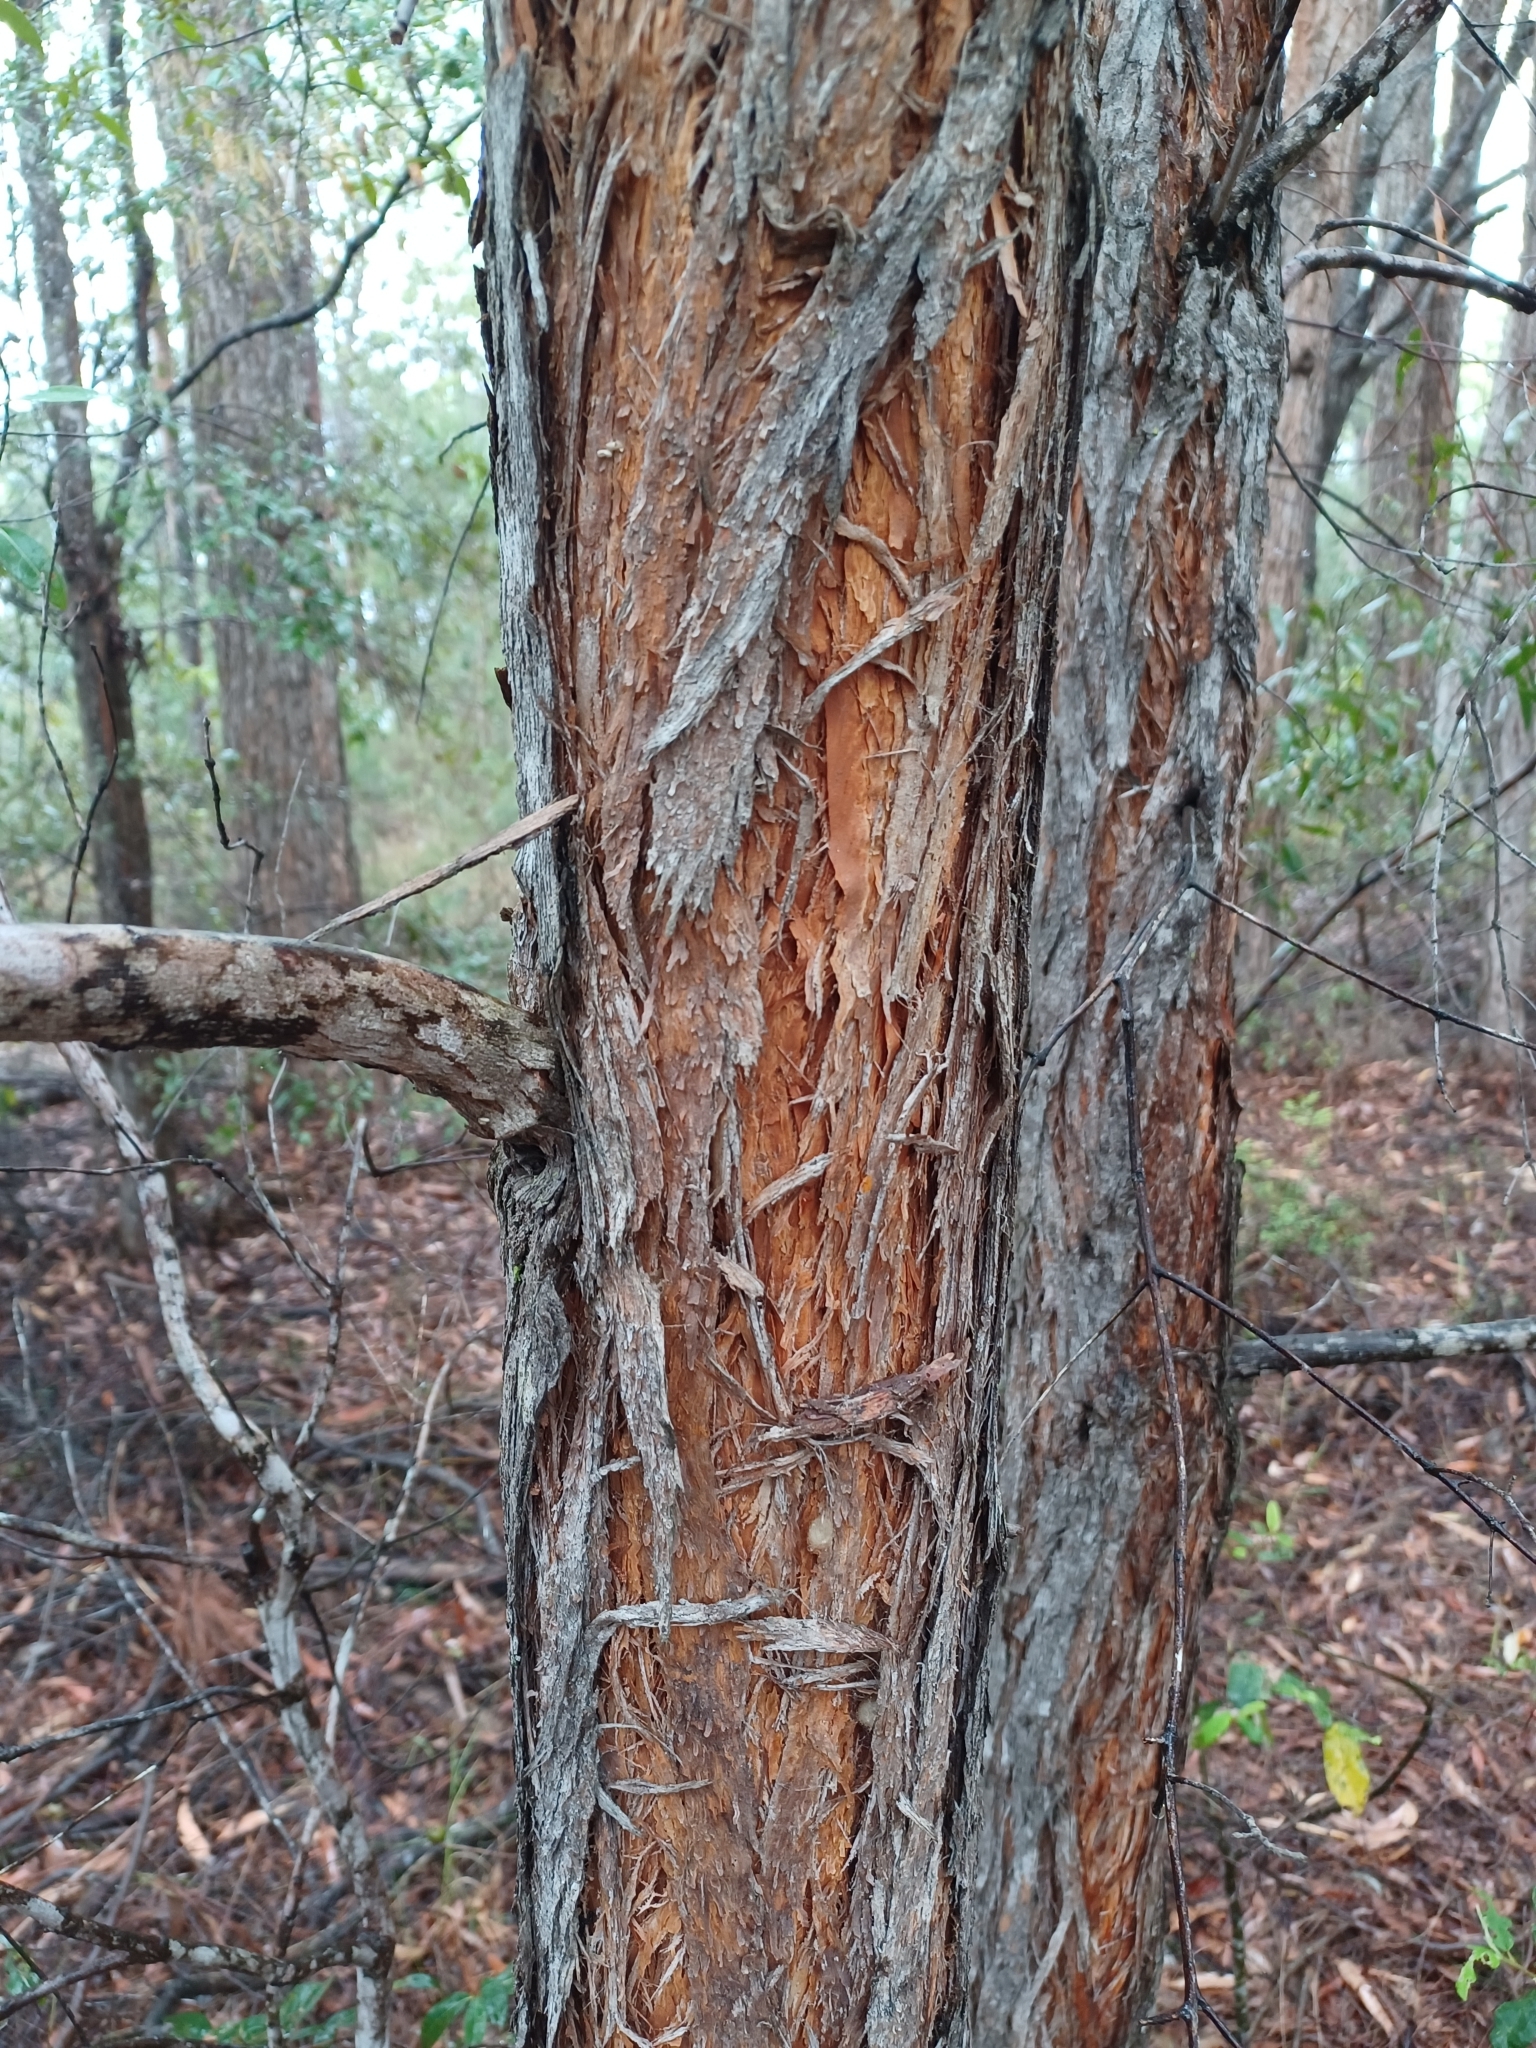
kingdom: Plantae
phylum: Tracheophyta
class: Magnoliopsida
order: Myrtales
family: Myrtaceae
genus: Syncarpia
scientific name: Syncarpia glomulifera
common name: Turpentine tree
